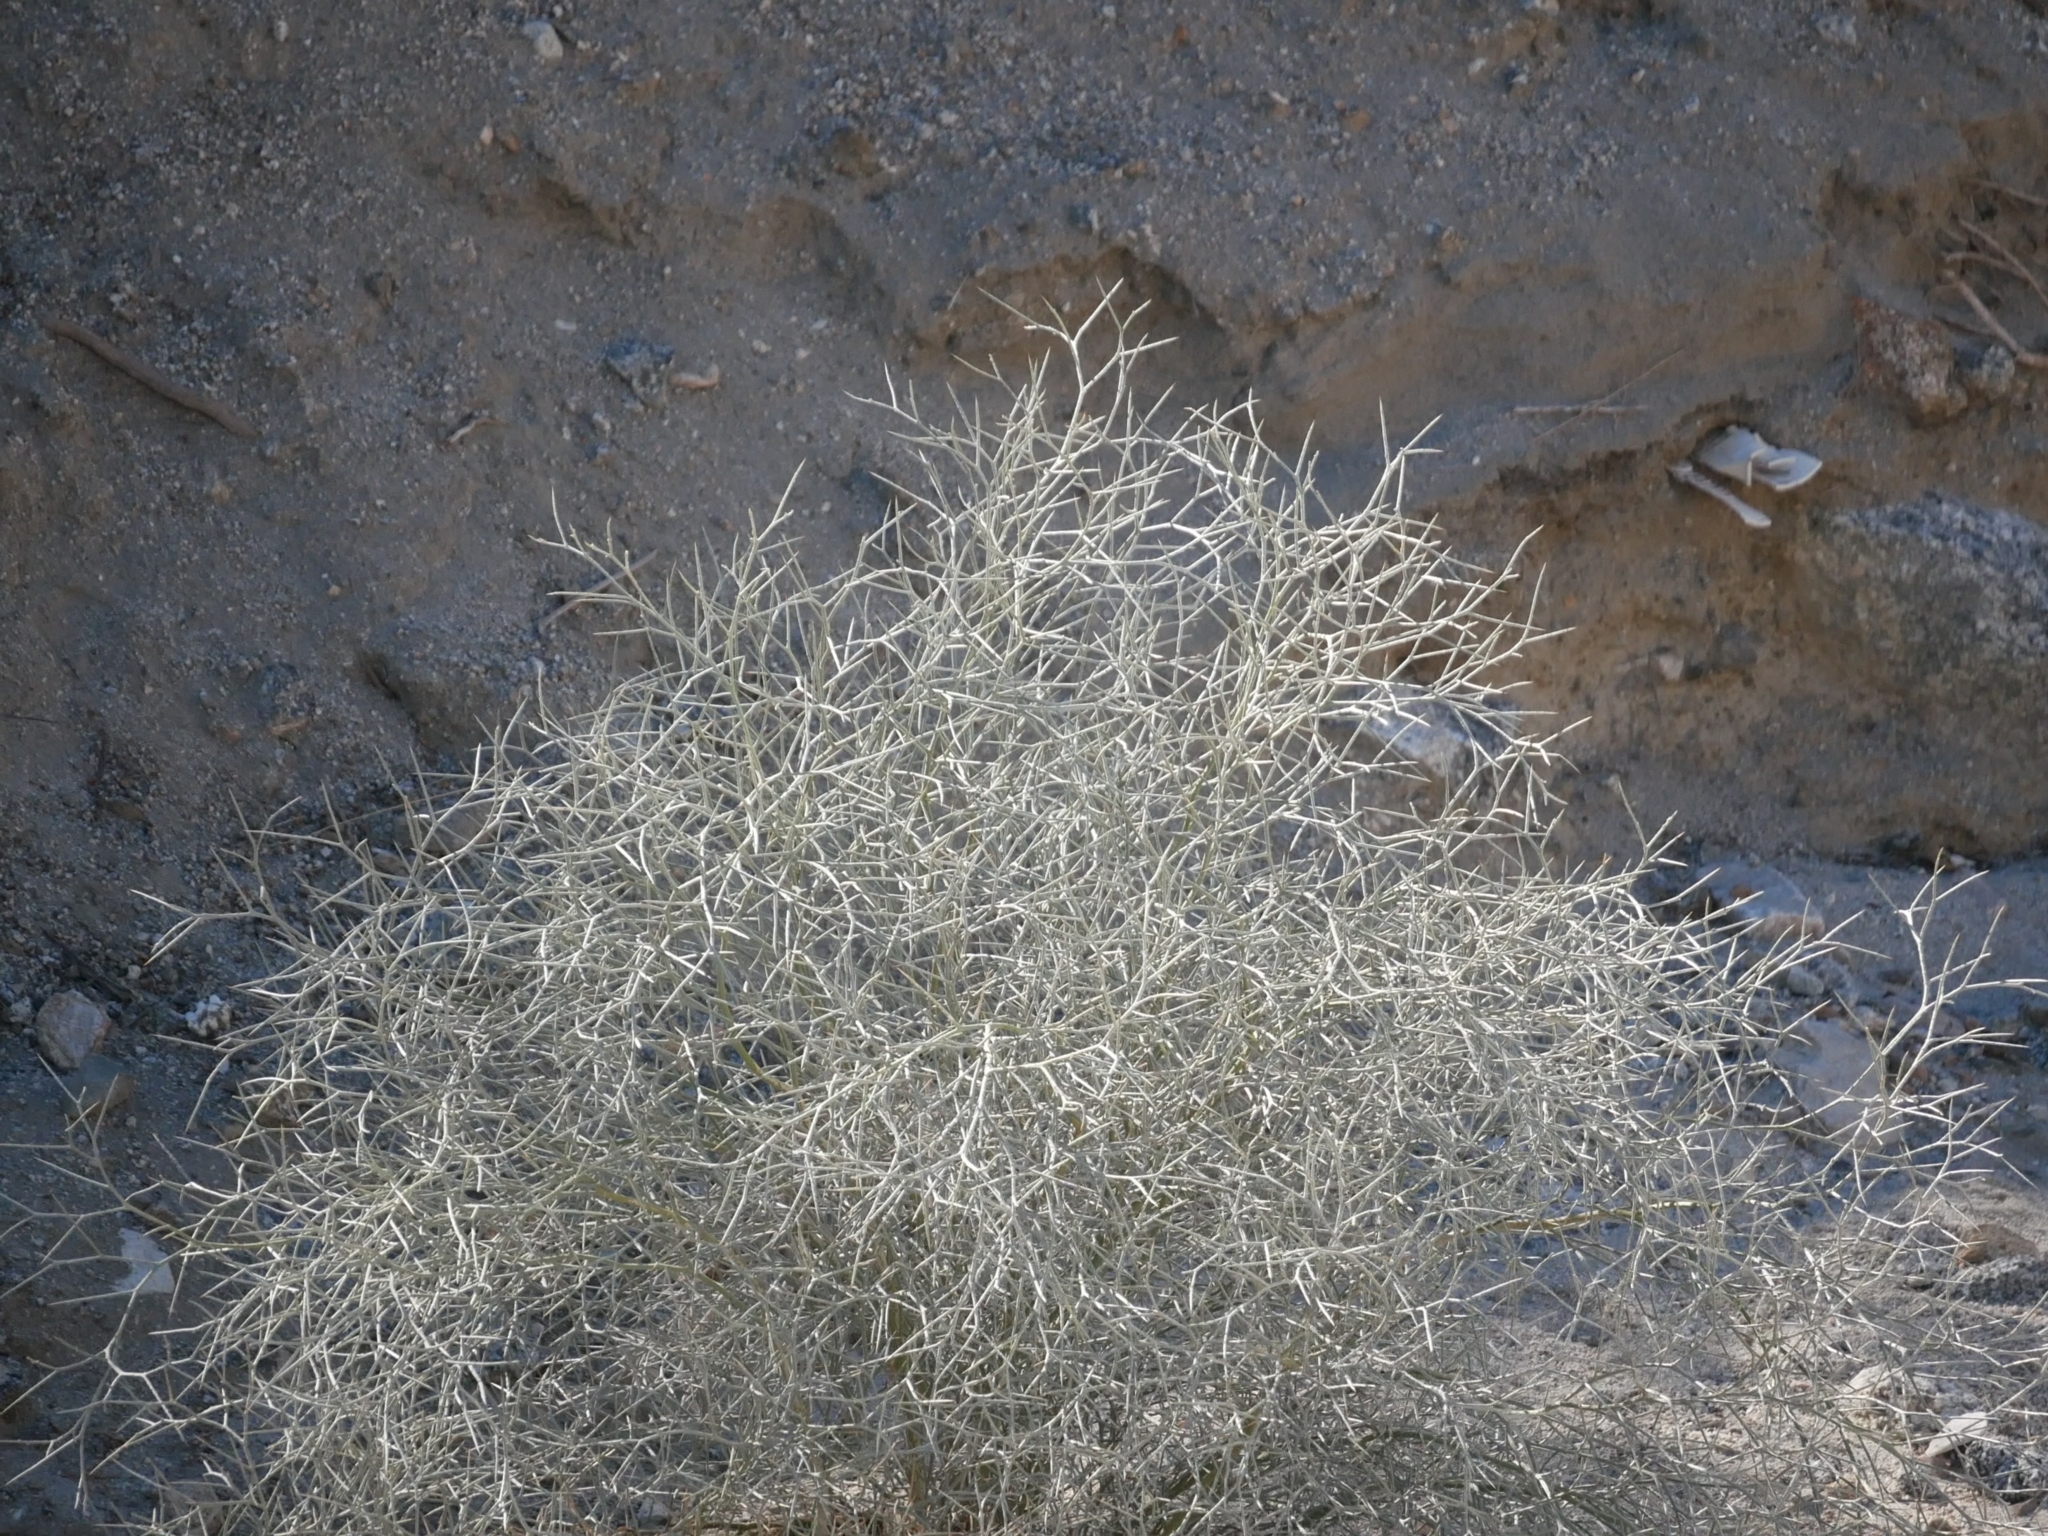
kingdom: Plantae
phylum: Tracheophyta
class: Magnoliopsida
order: Fabales
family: Fabaceae
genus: Psorothamnus
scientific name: Psorothamnus spinosus
